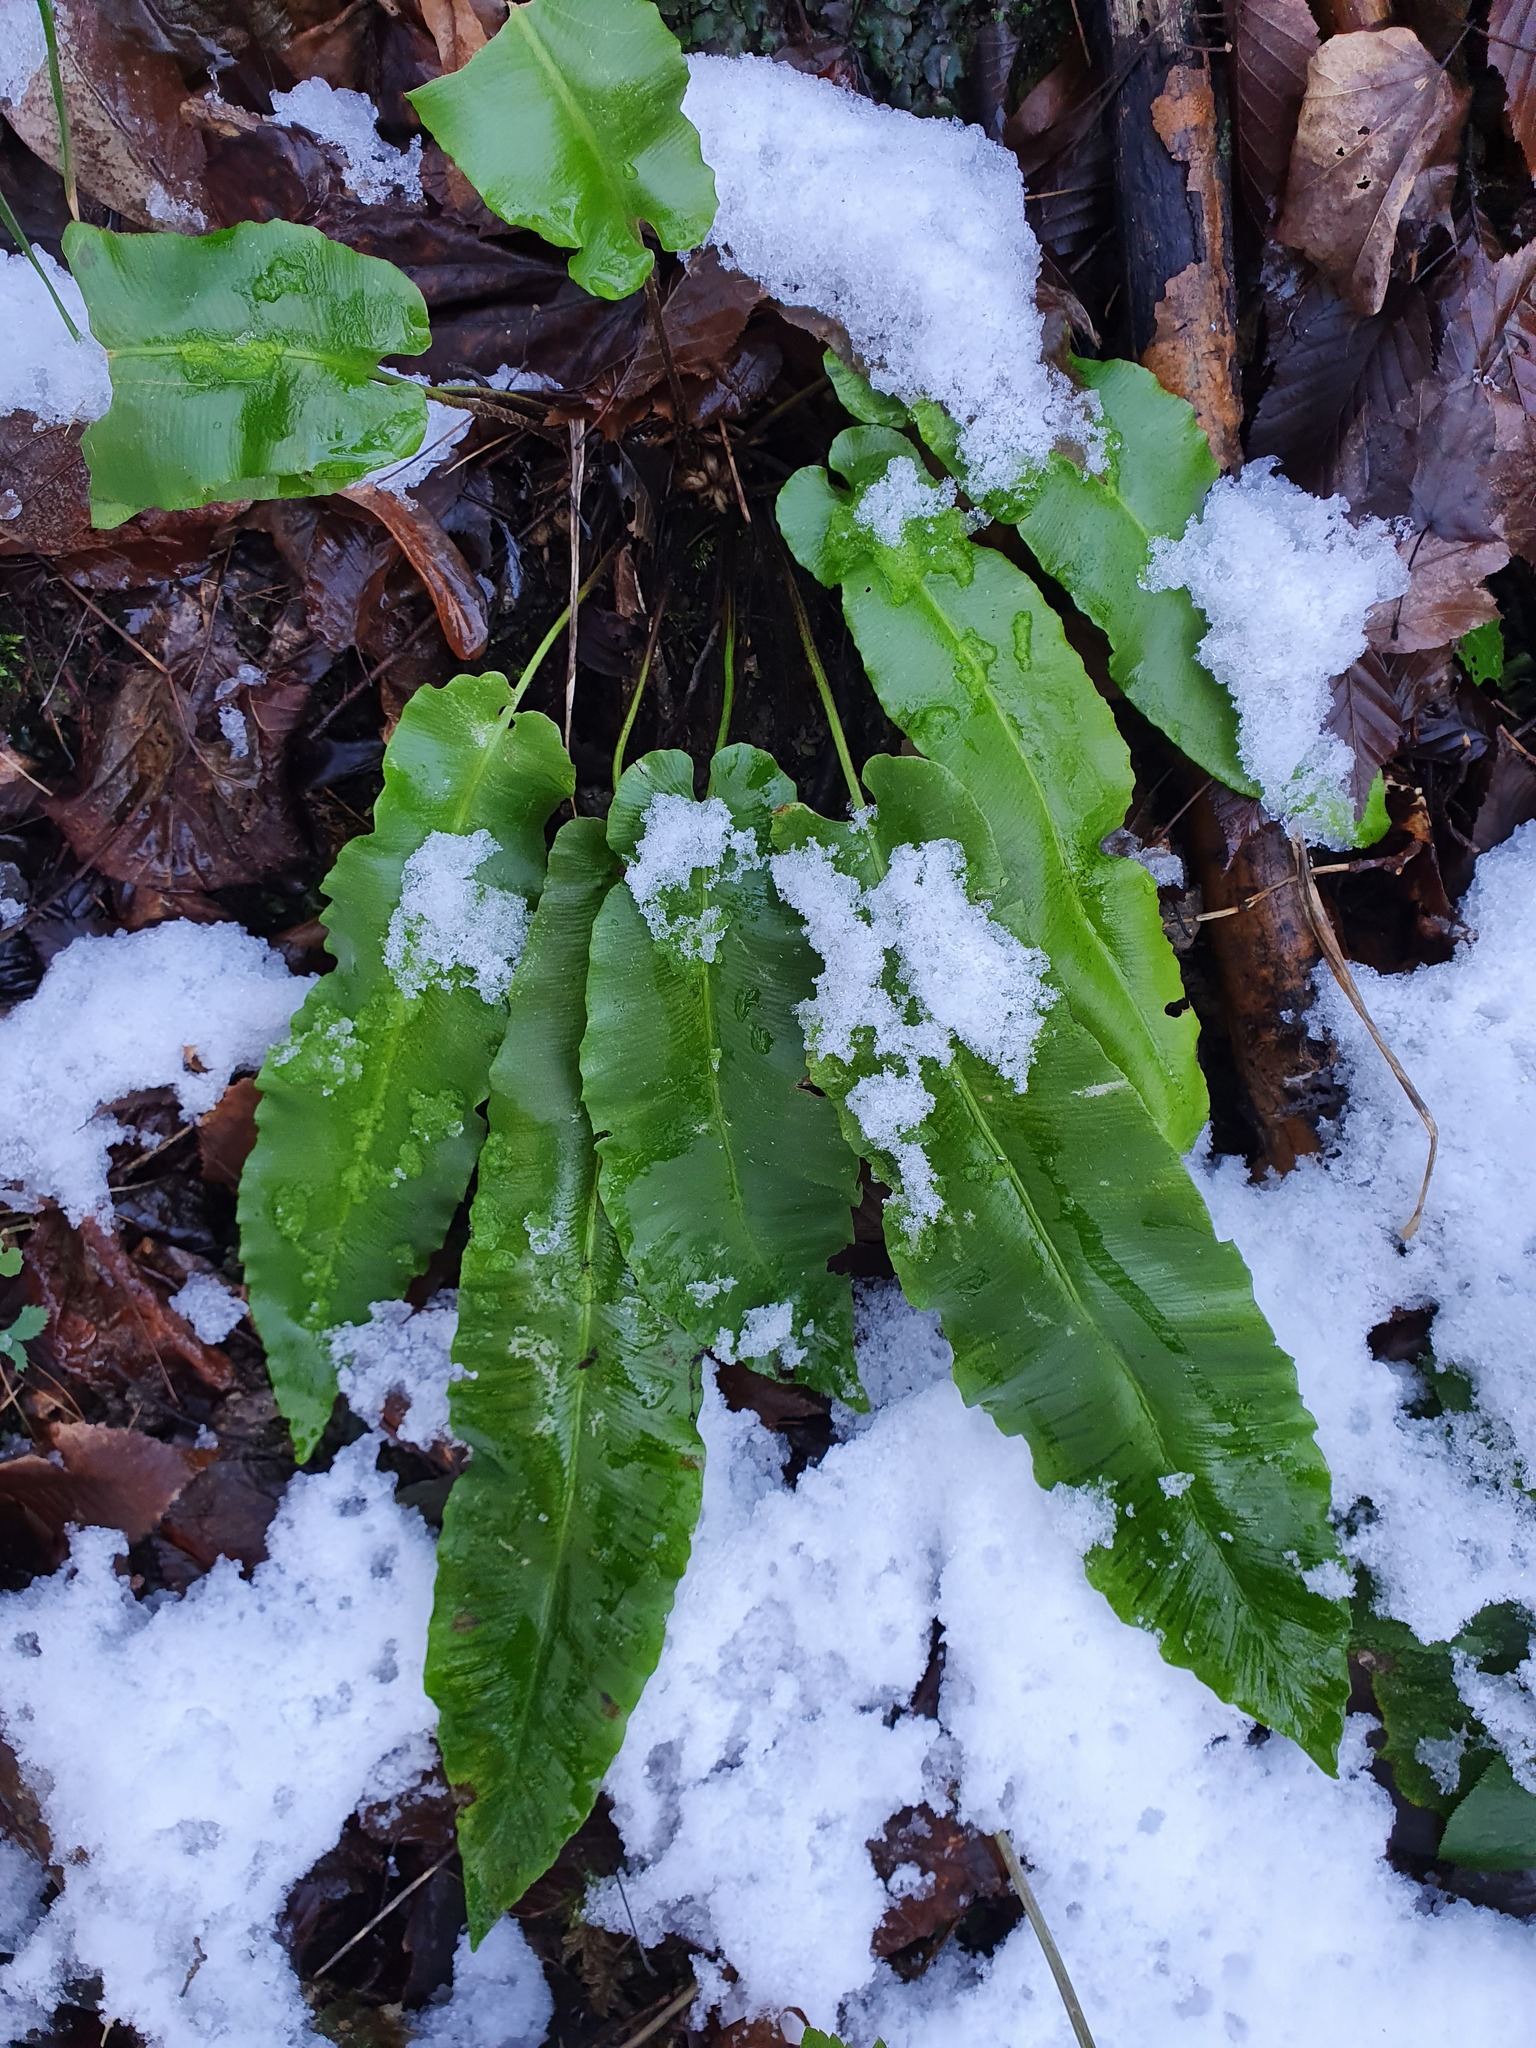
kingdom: Plantae
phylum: Tracheophyta
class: Polypodiopsida
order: Polypodiales
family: Aspleniaceae
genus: Asplenium
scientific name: Asplenium scolopendrium
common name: Hart's-tongue fern
